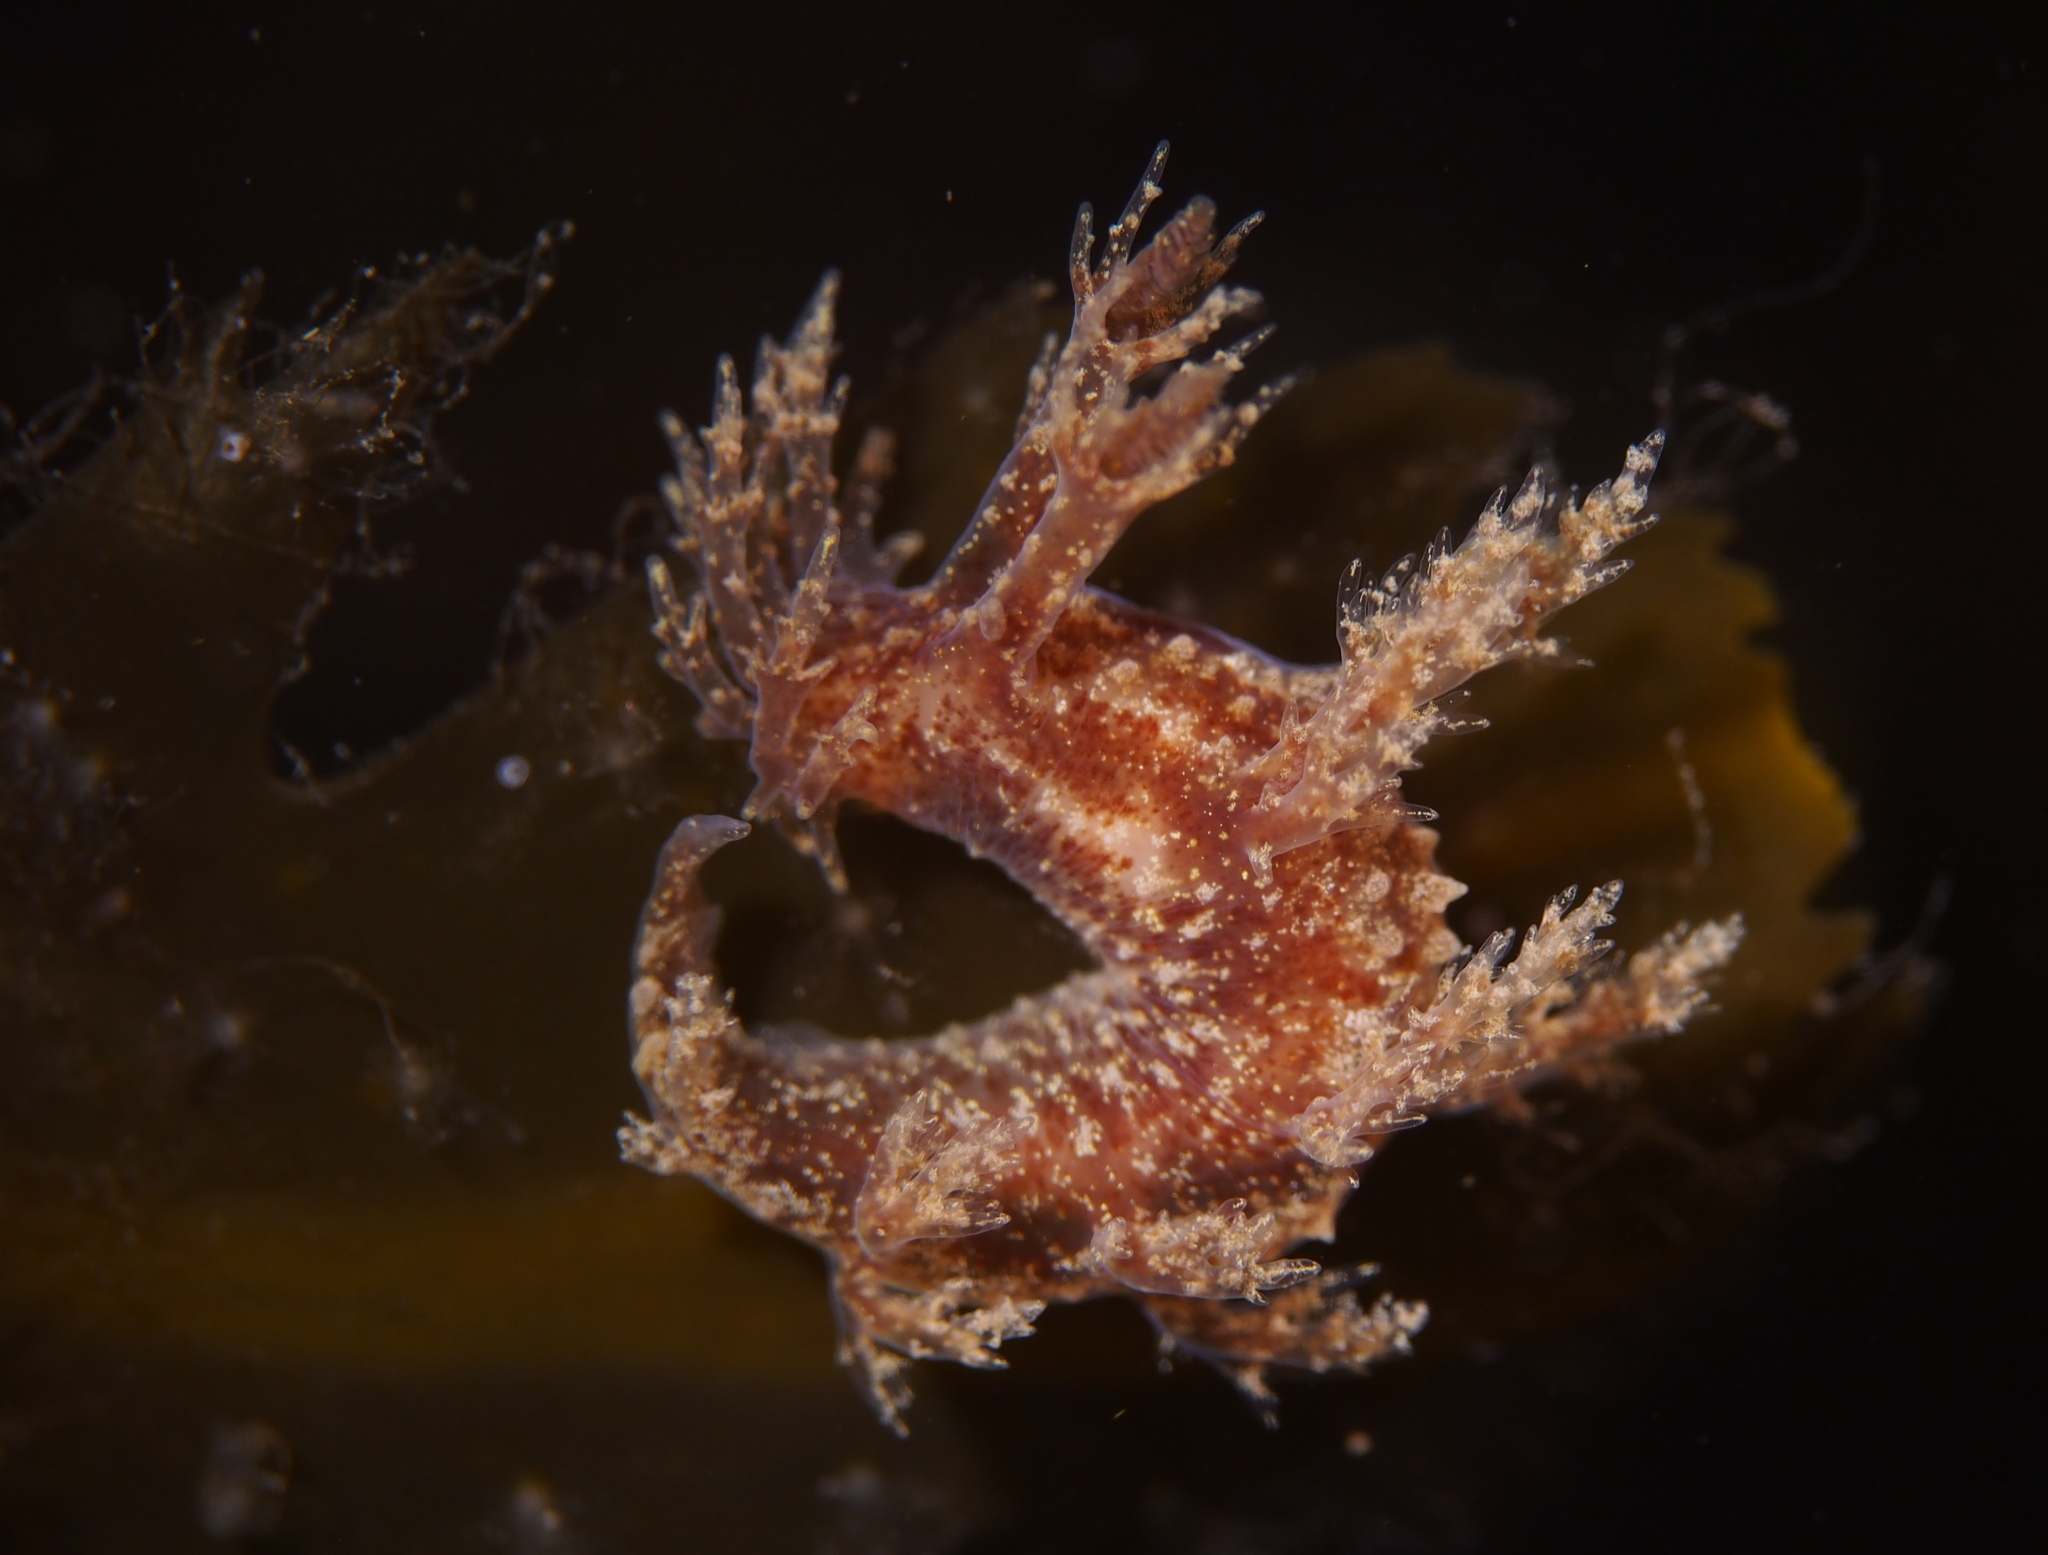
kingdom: Animalia
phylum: Mollusca
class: Gastropoda
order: Nudibranchia
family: Dendronotidae
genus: Dendronotus
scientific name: Dendronotus frondosus
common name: Bushy-backed nudibranch
